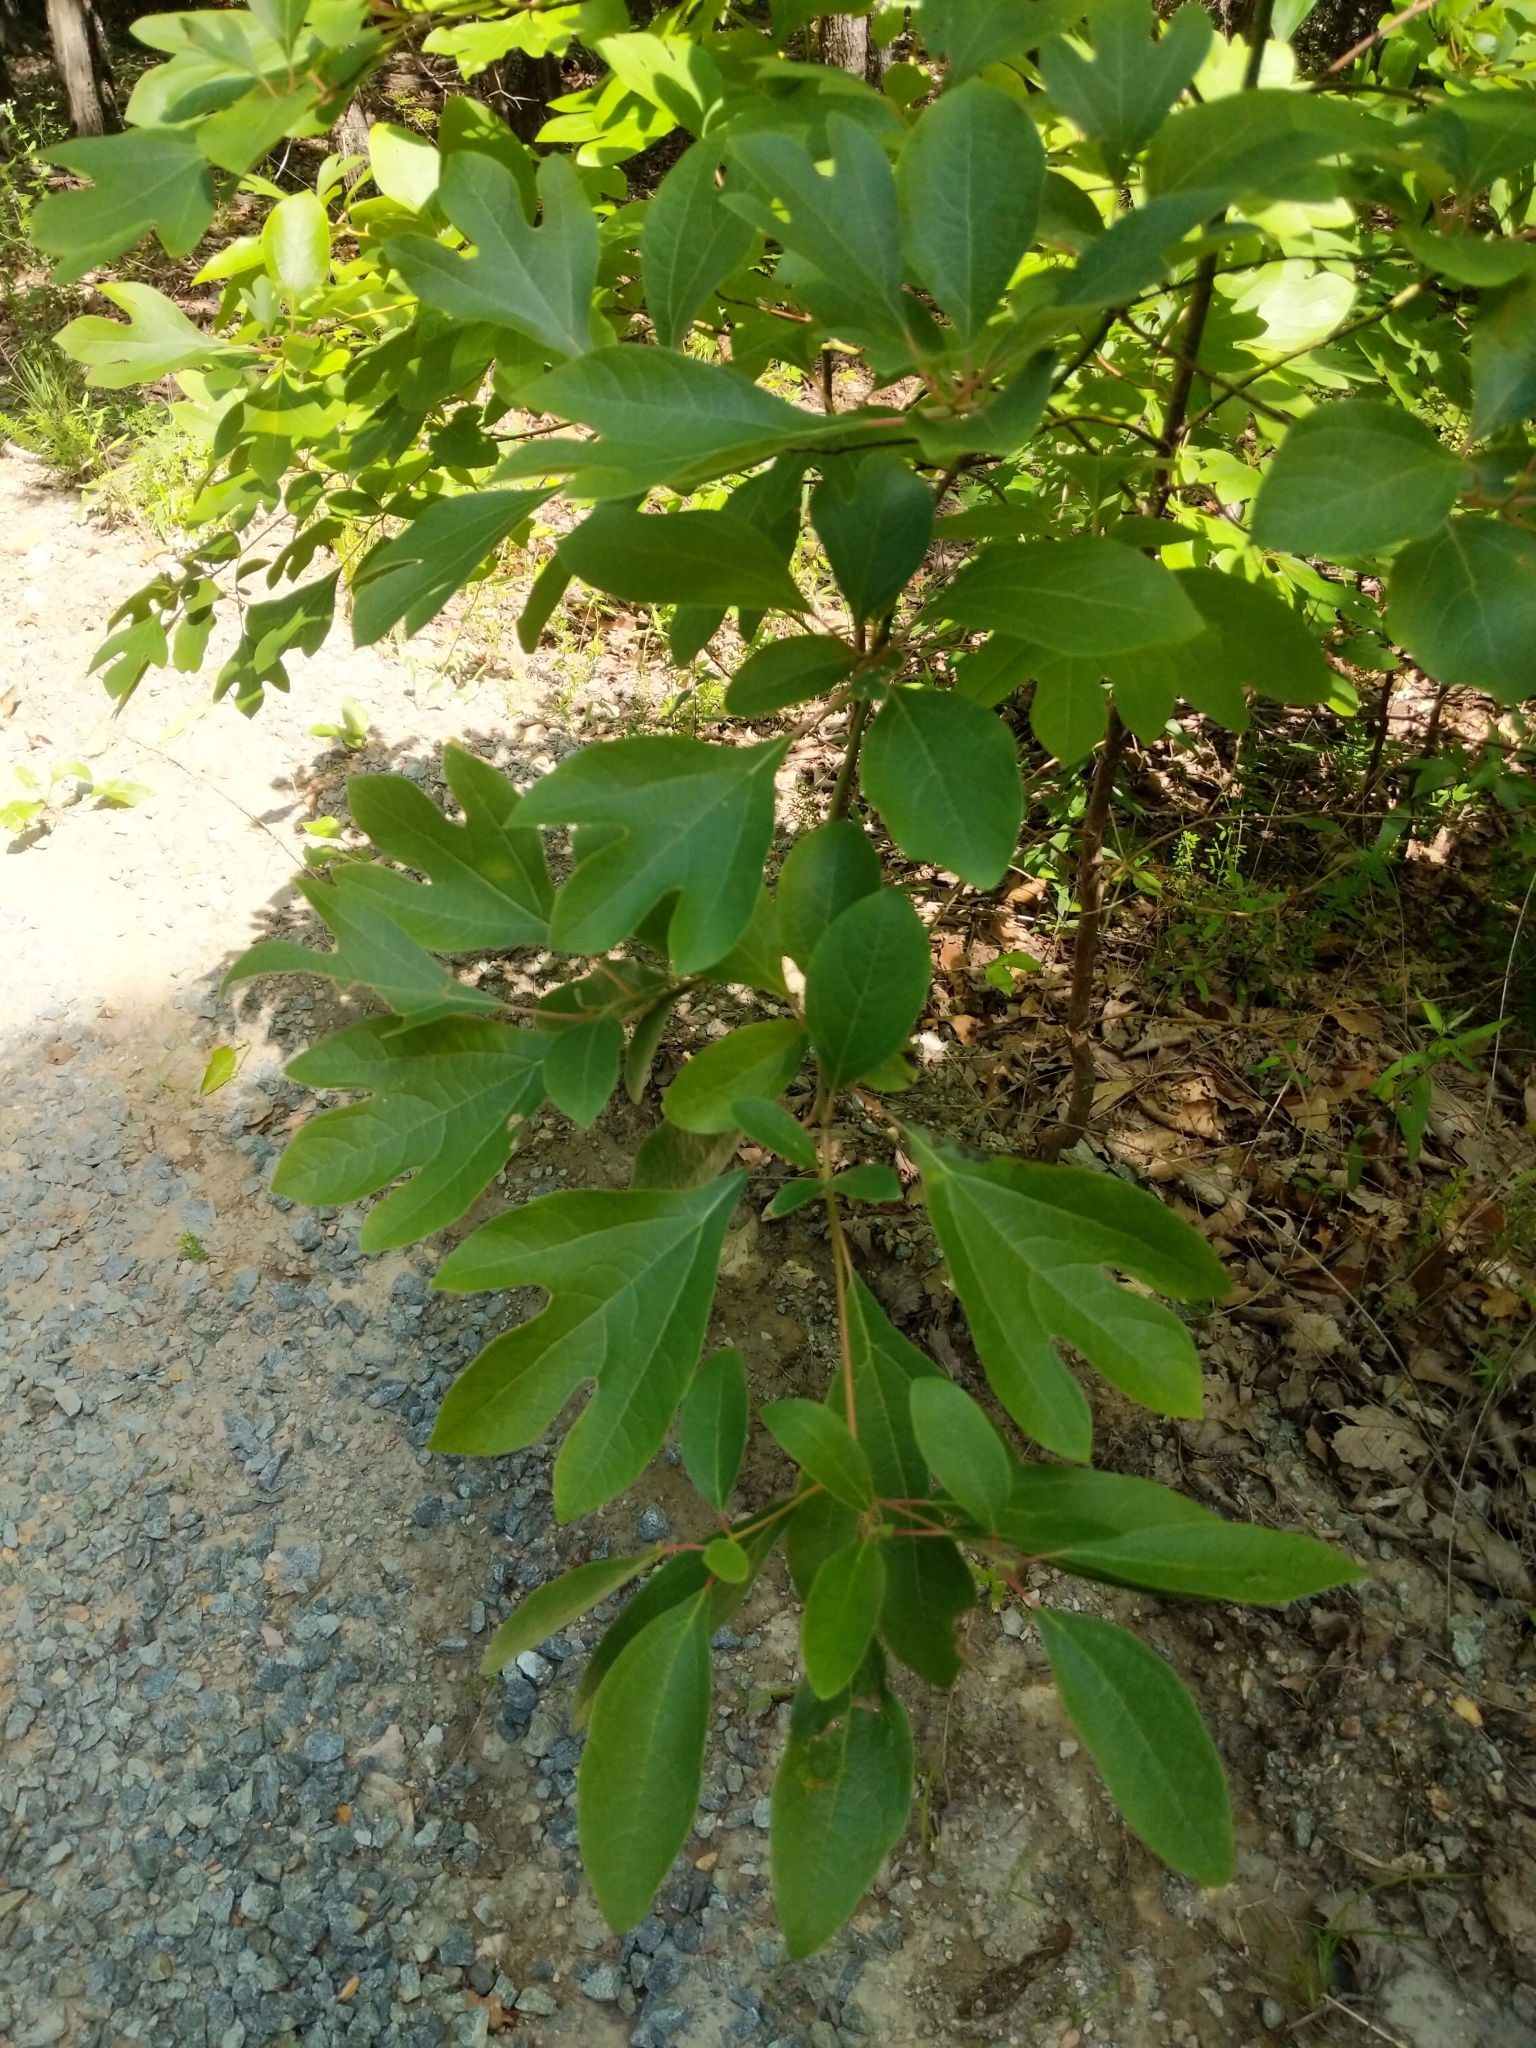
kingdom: Plantae
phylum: Tracheophyta
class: Magnoliopsida
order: Laurales
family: Lauraceae
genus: Sassafras
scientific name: Sassafras albidum
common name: Sassafras
